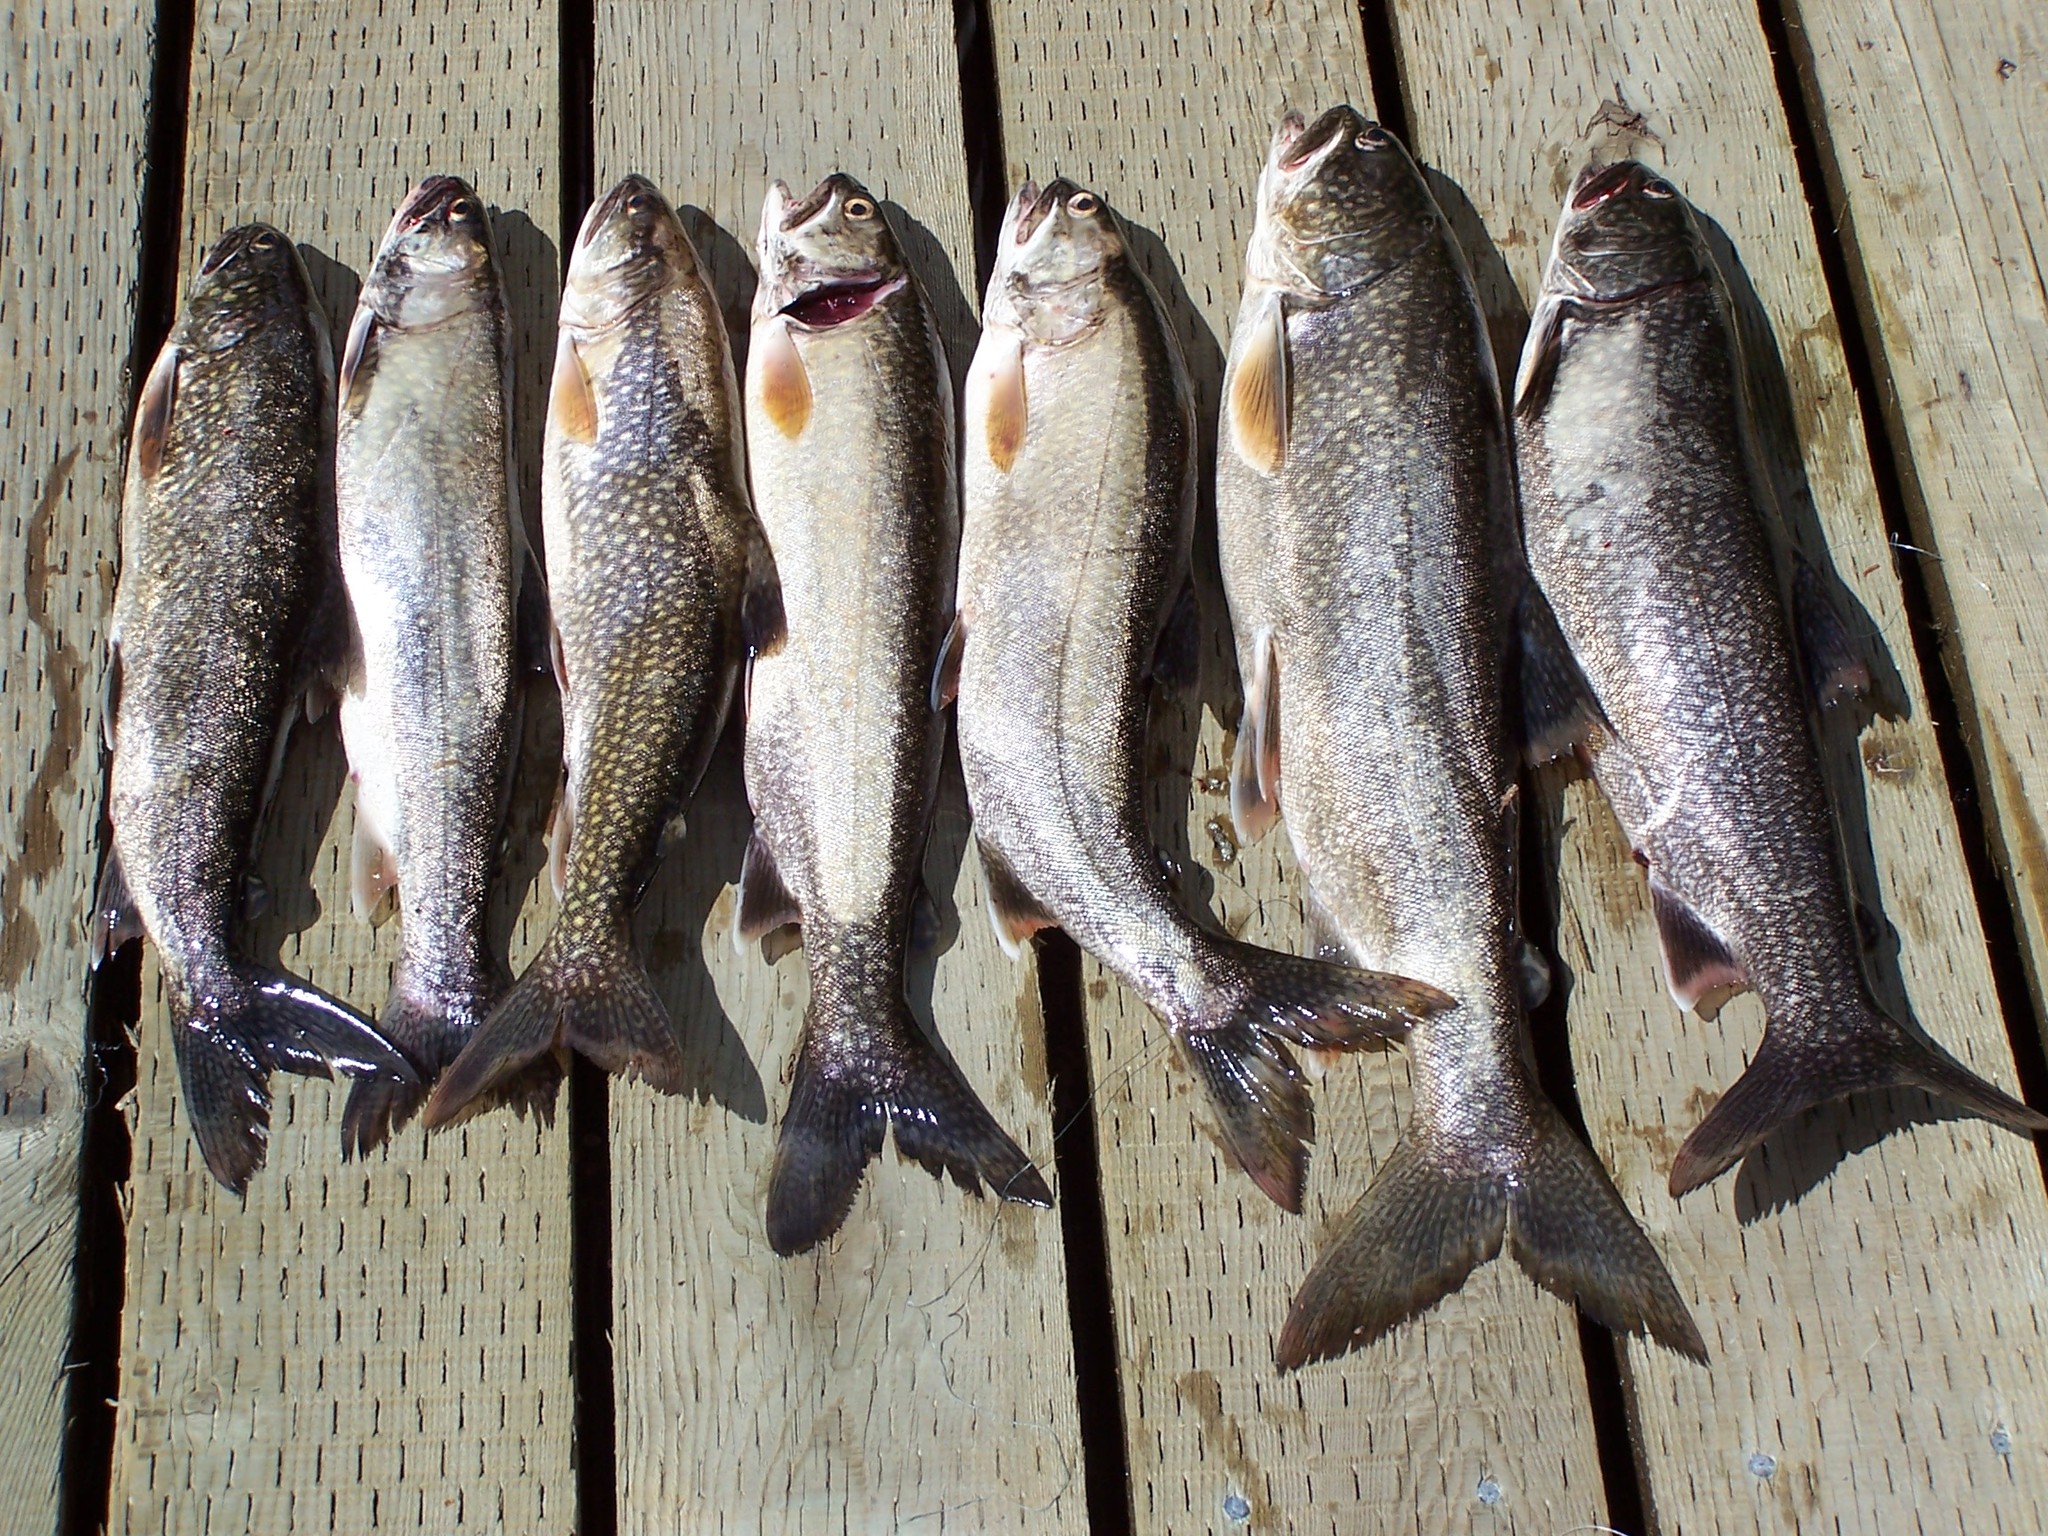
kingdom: Animalia
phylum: Chordata
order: Salmoniformes
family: Salmonidae
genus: Salvelinus
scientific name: Salvelinus namaycush
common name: American lake charr
